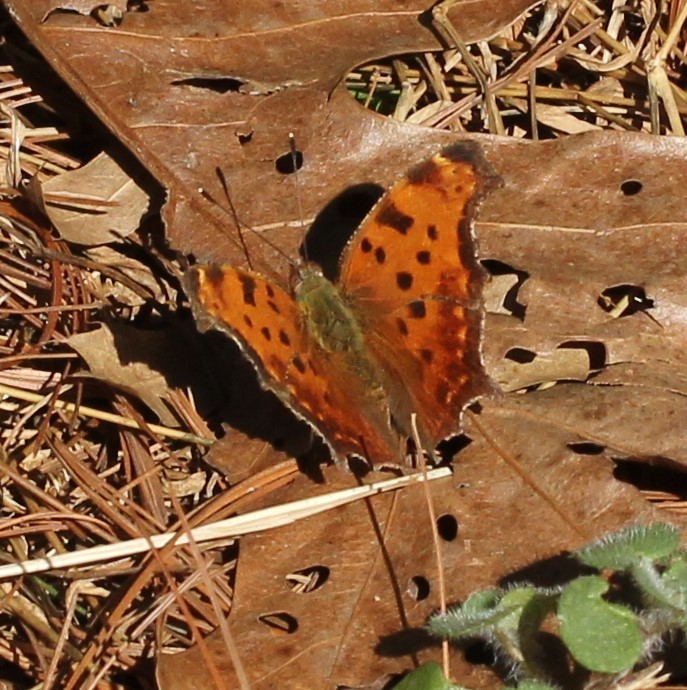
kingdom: Animalia
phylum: Arthropoda
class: Insecta
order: Lepidoptera
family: Nymphalidae
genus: Polygonia
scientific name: Polygonia comma
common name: Eastern comma
